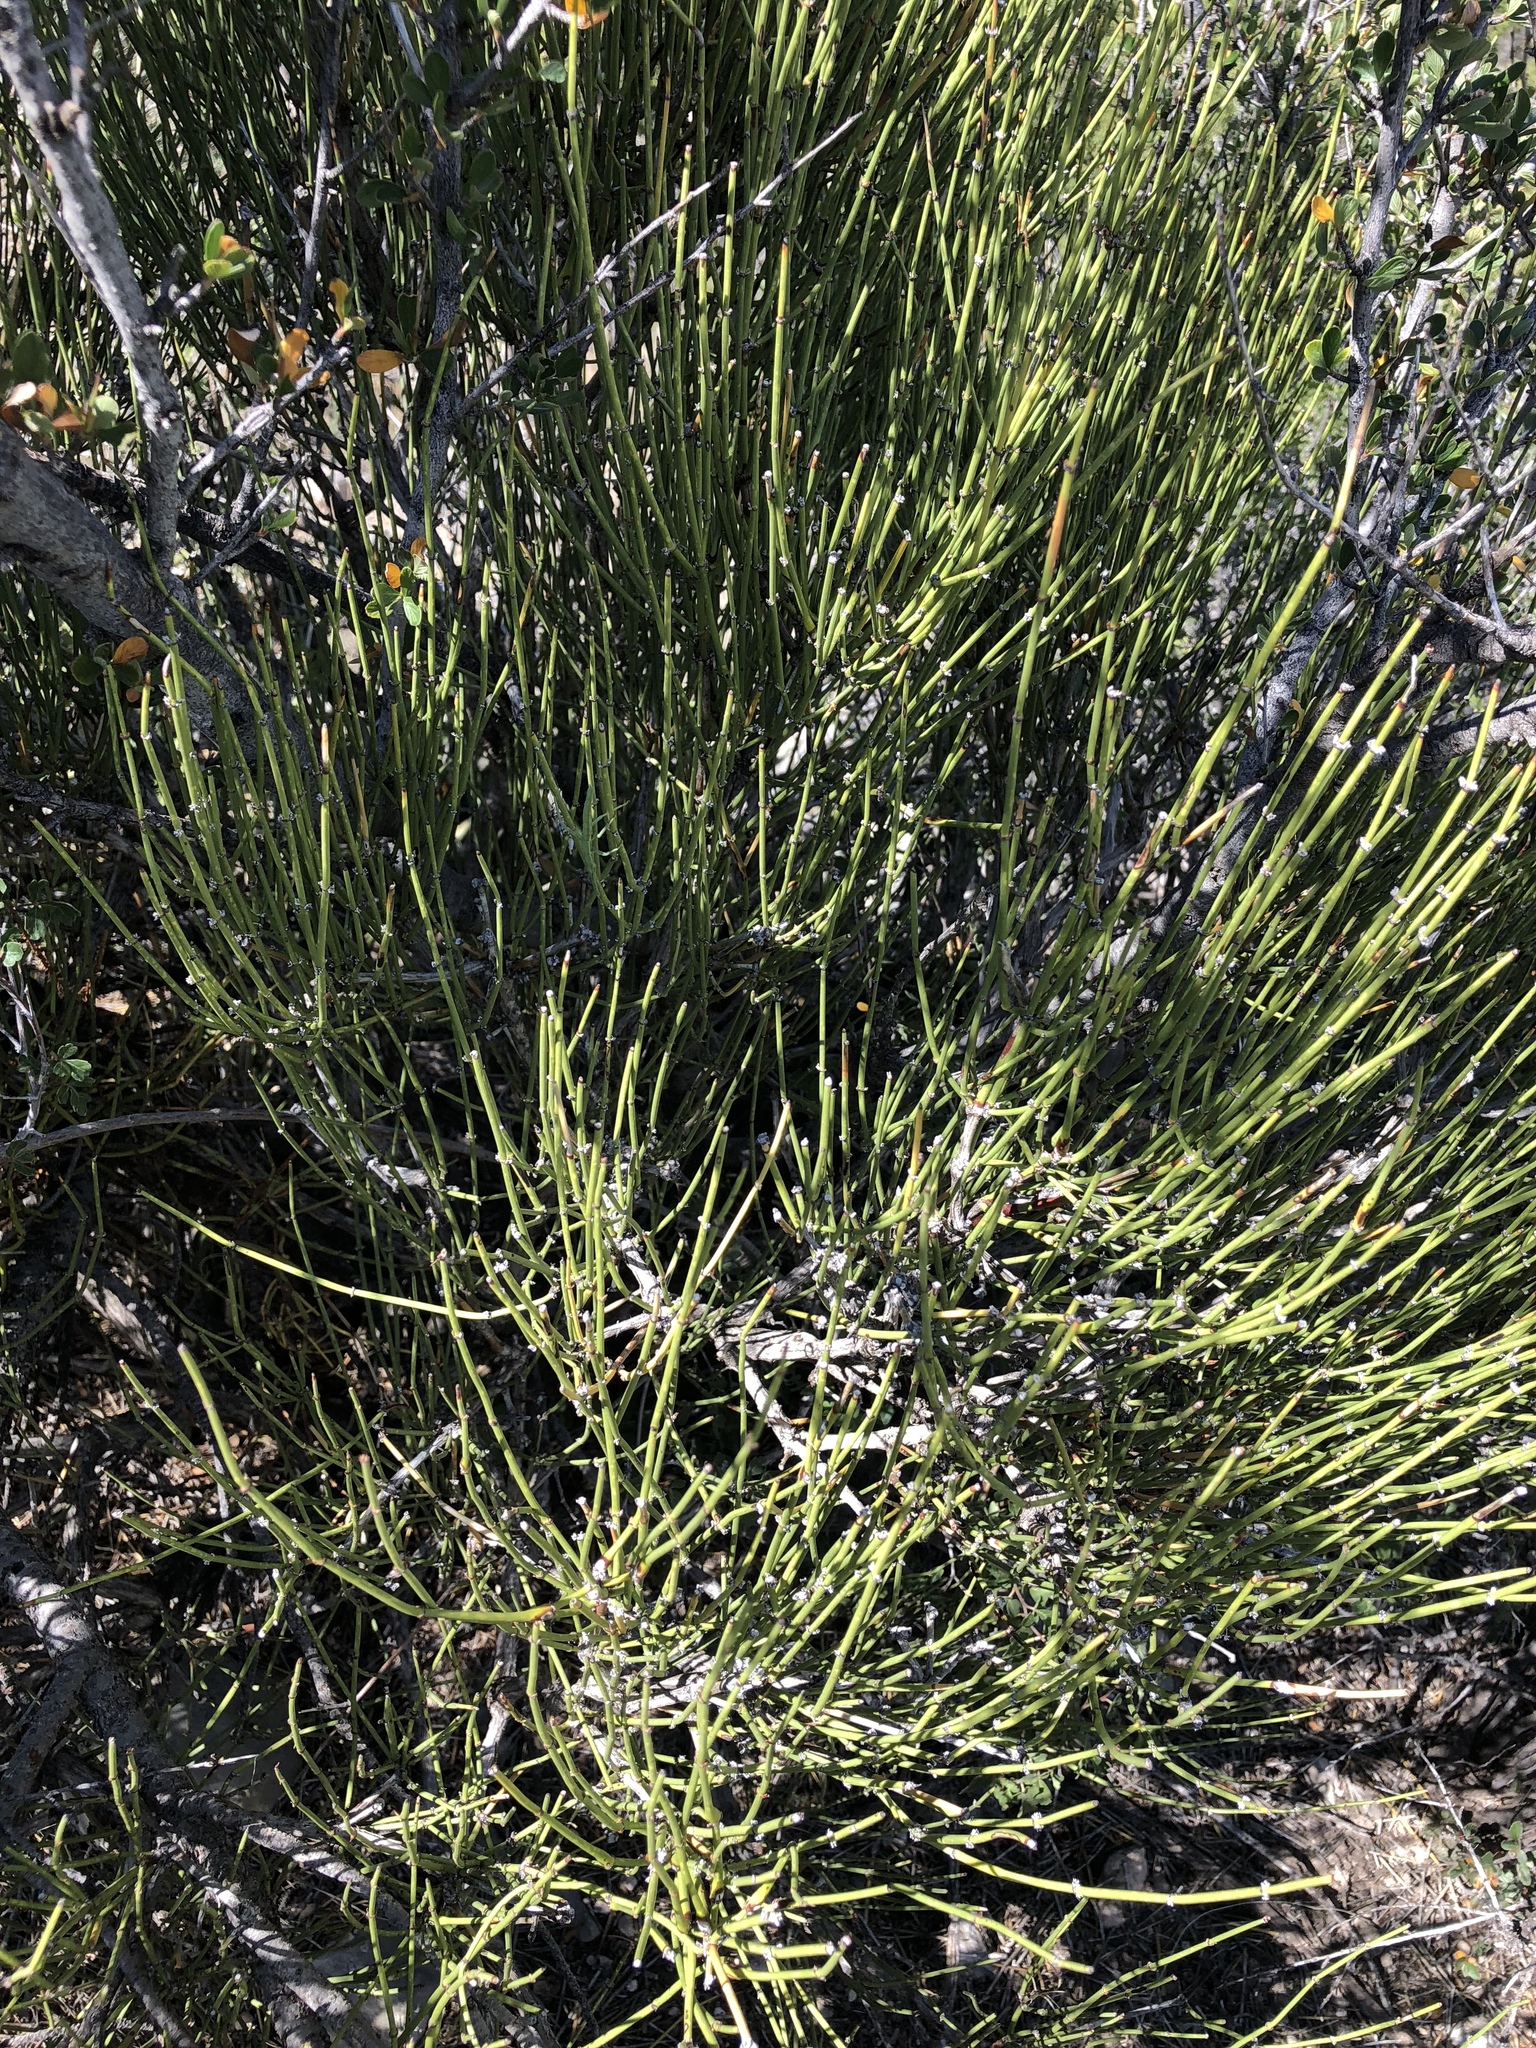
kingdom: Plantae
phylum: Tracheophyta
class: Gnetopsida
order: Ephedrales
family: Ephedraceae
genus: Ephedra
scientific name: Ephedra trifurca
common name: Mexican-tea
